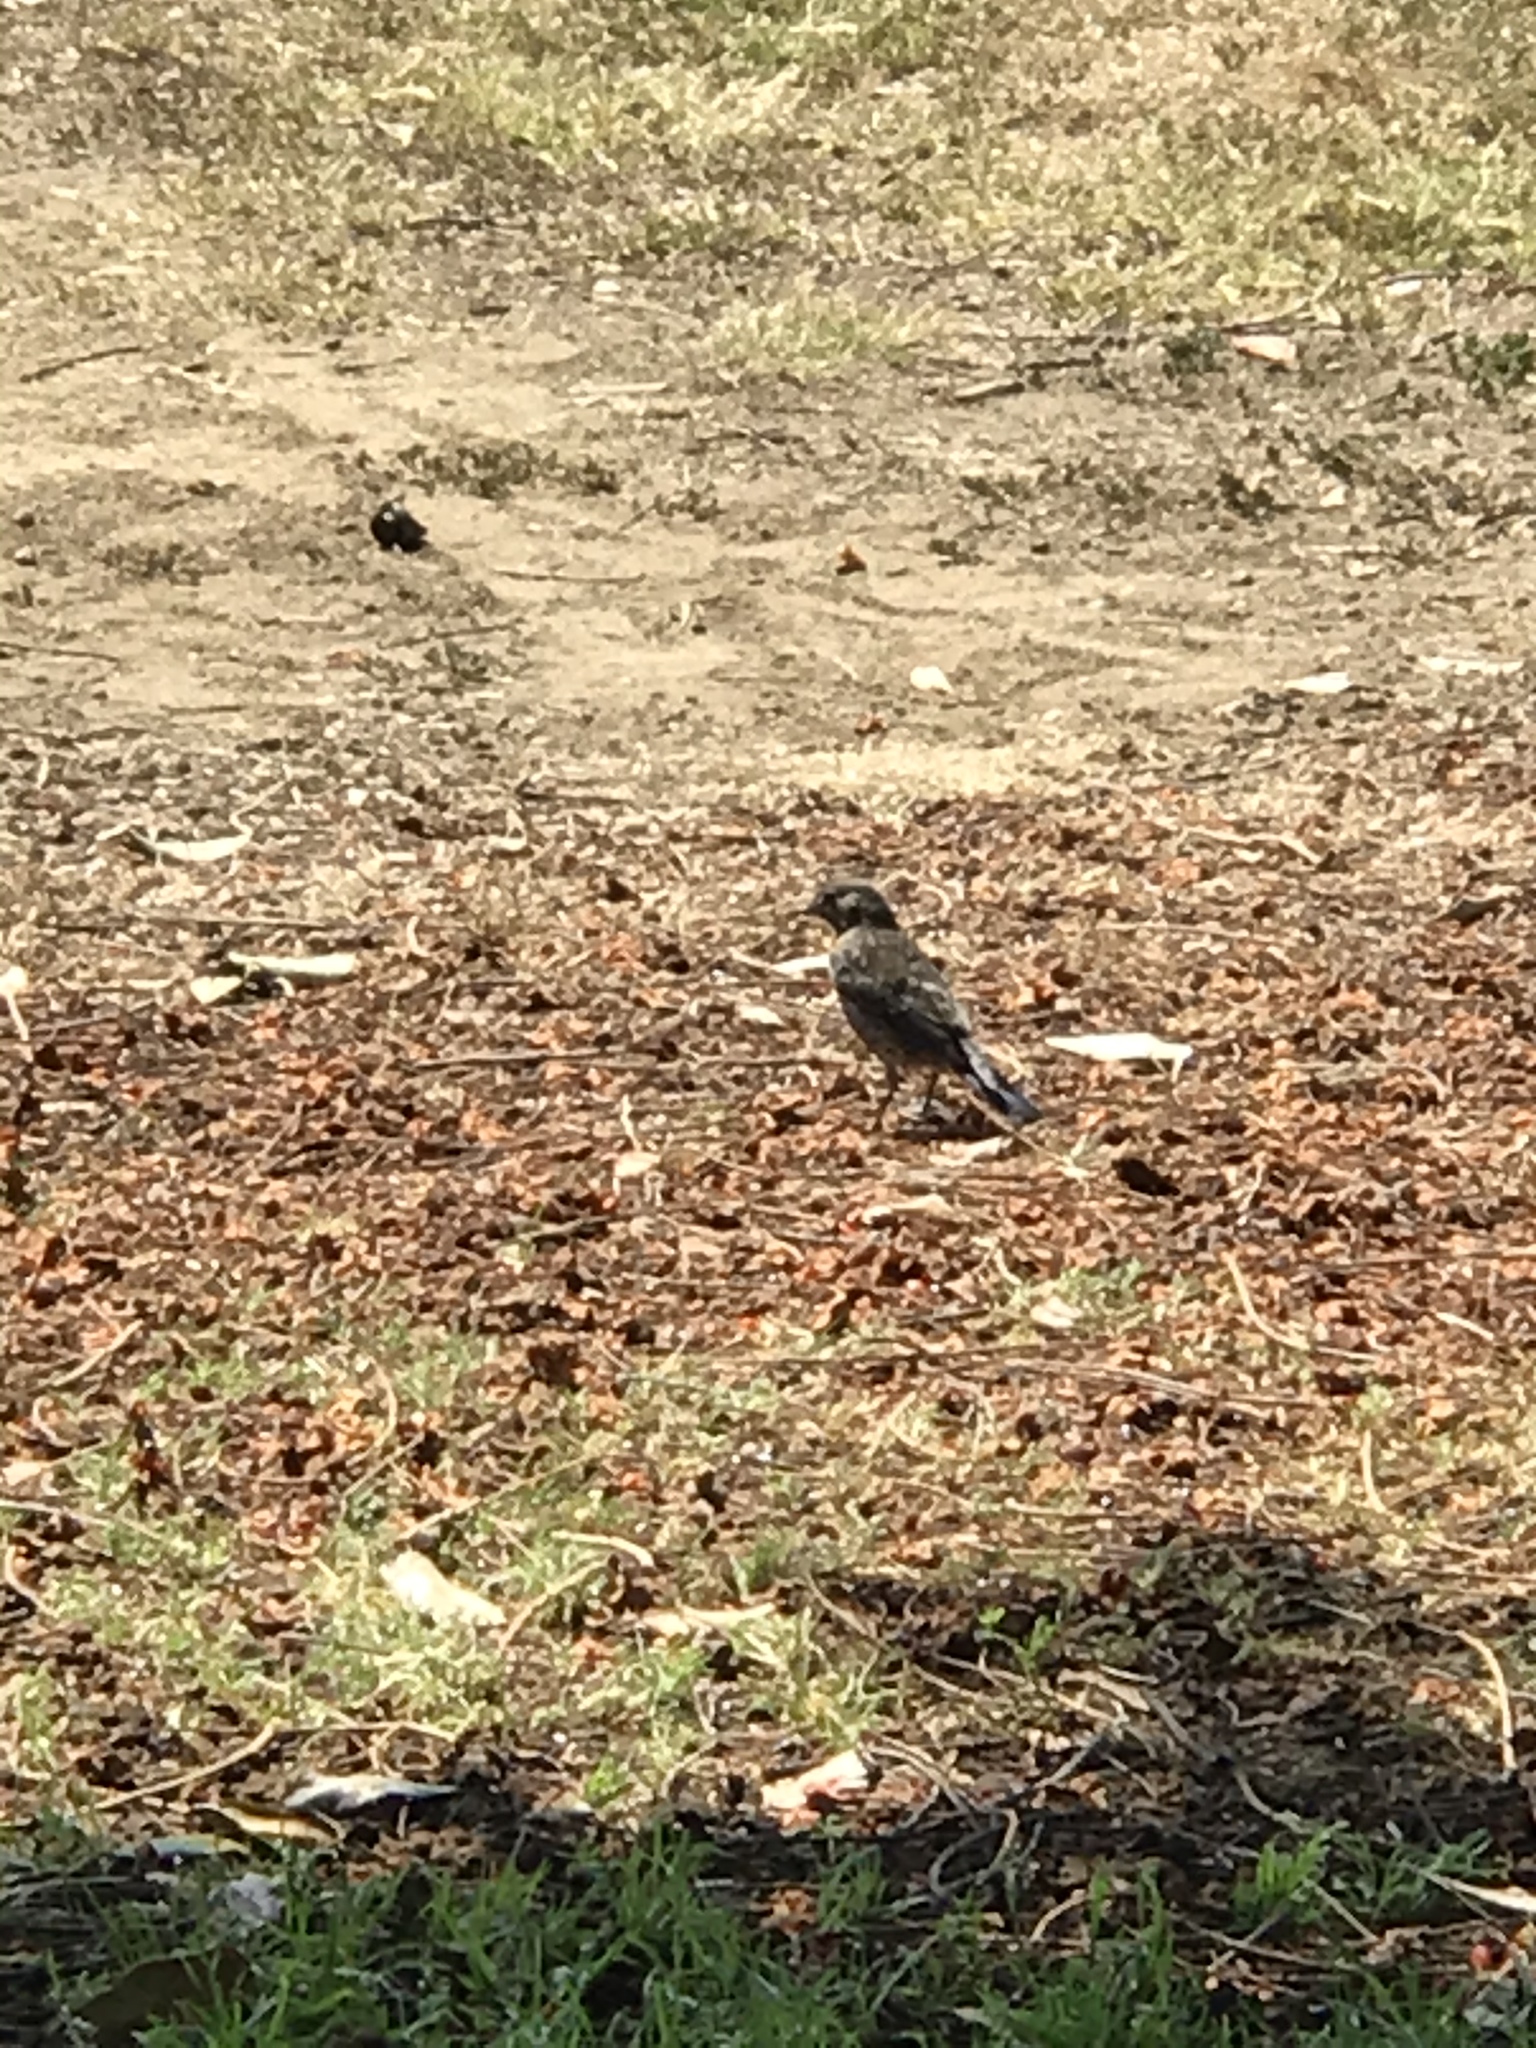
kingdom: Animalia
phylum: Chordata
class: Aves
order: Passeriformes
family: Turdidae
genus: Sialia
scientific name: Sialia mexicana
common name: Western bluebird
